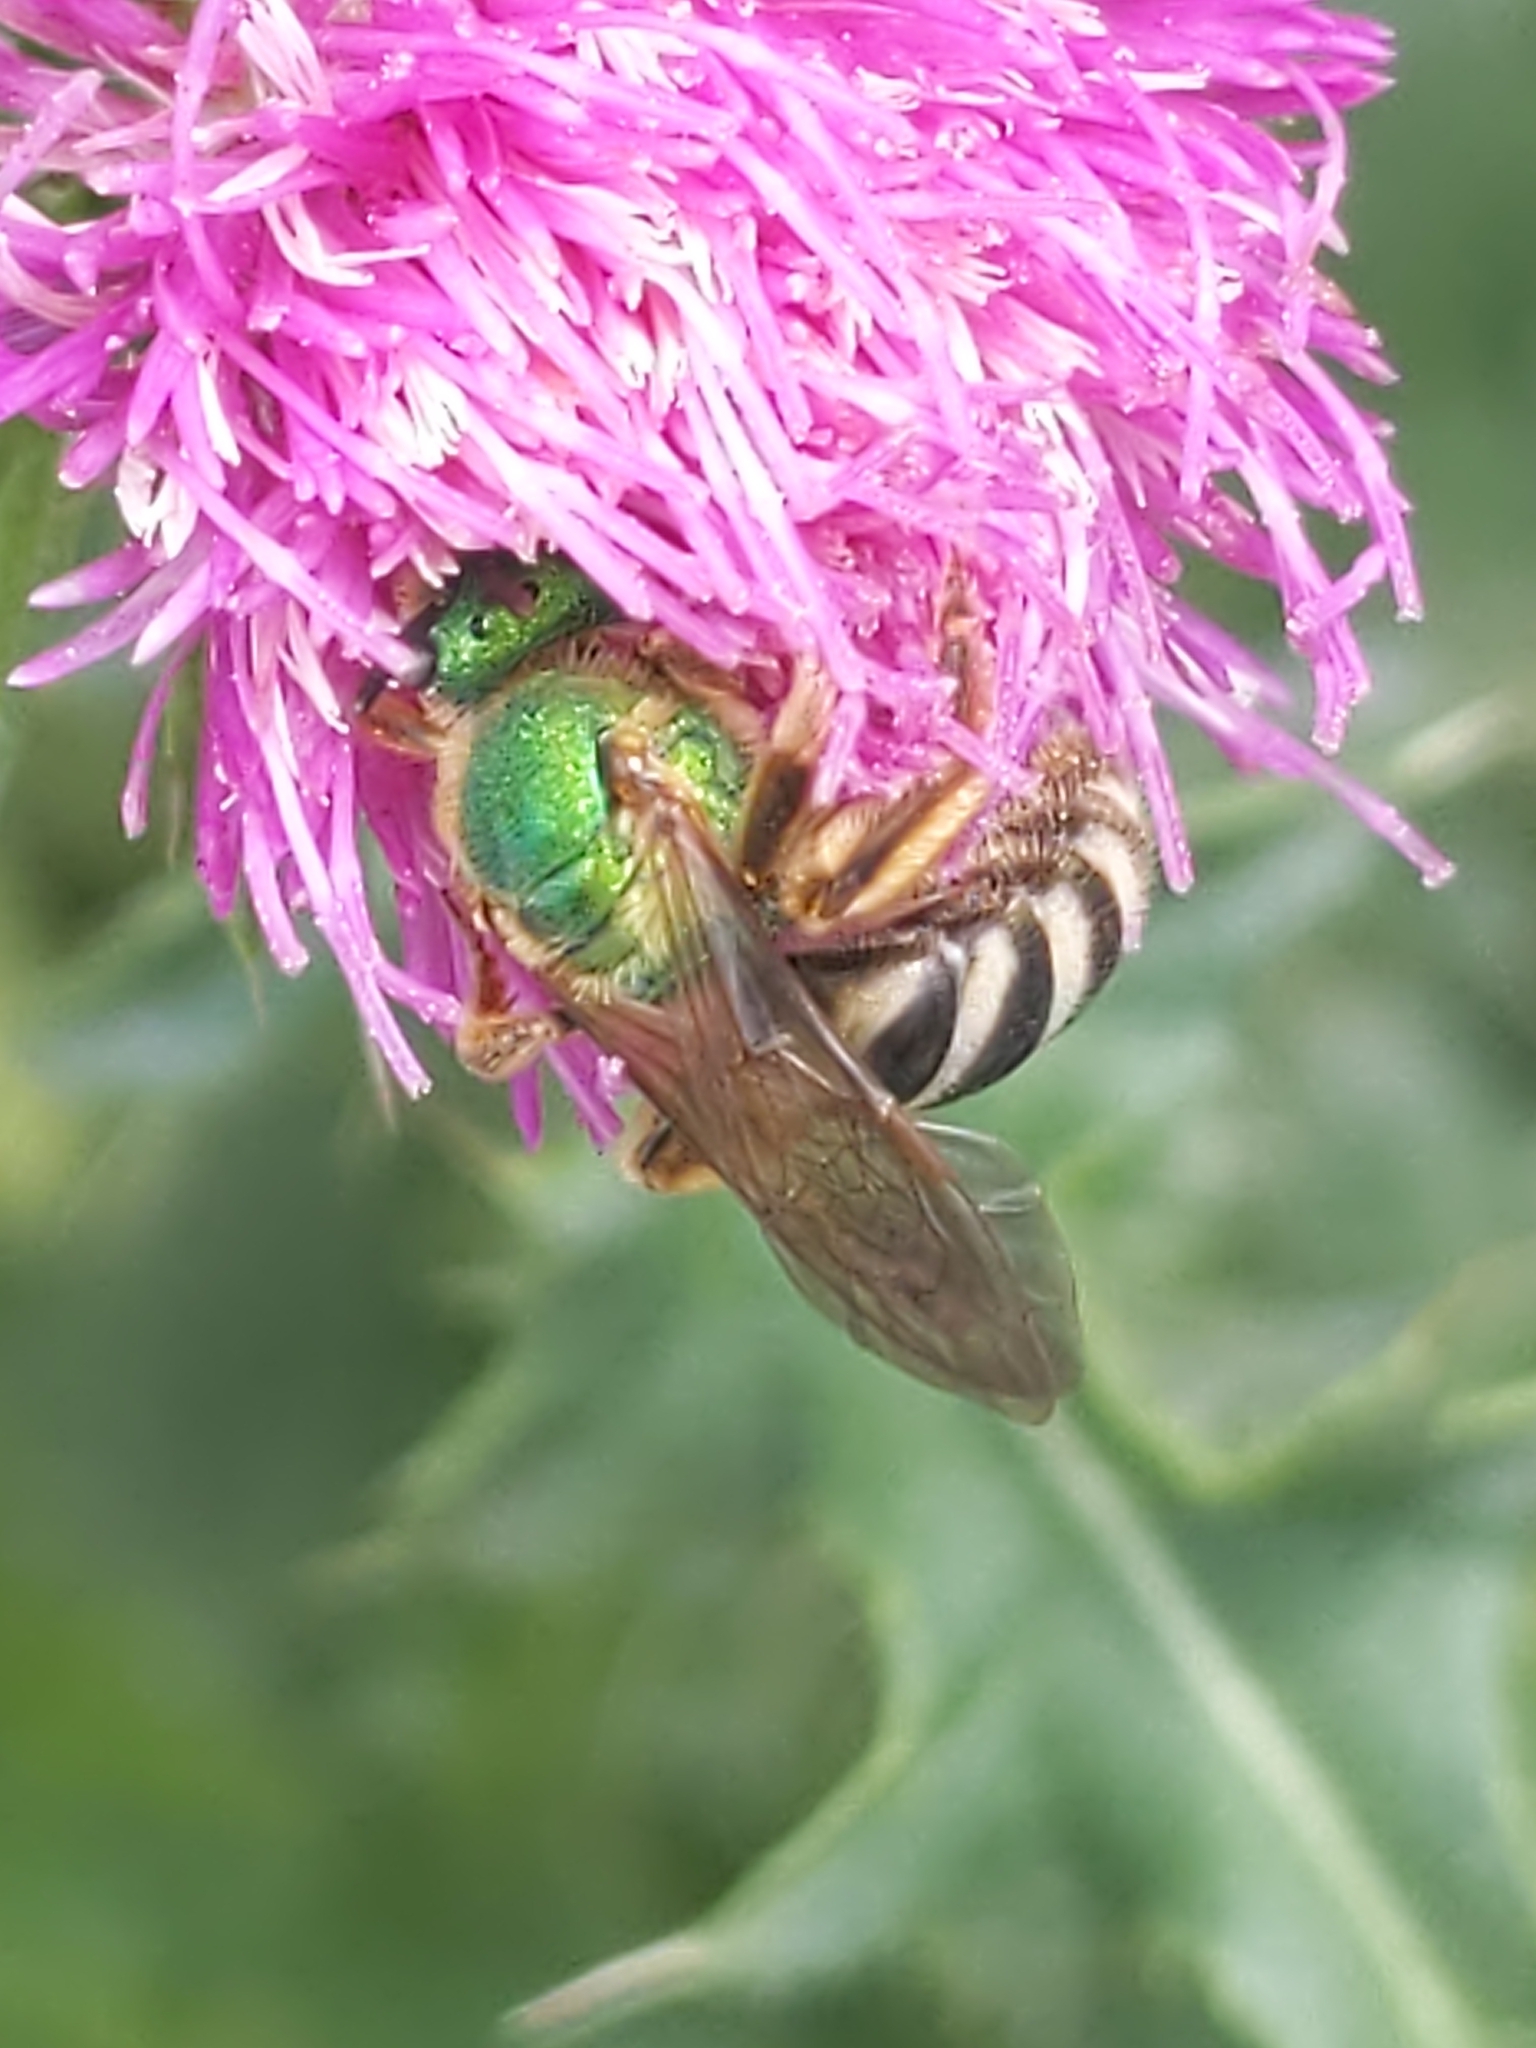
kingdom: Animalia
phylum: Arthropoda
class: Insecta
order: Hymenoptera
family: Halictidae
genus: Agapostemon
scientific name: Agapostemon virescens
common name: Bicolored striped sweat bee
